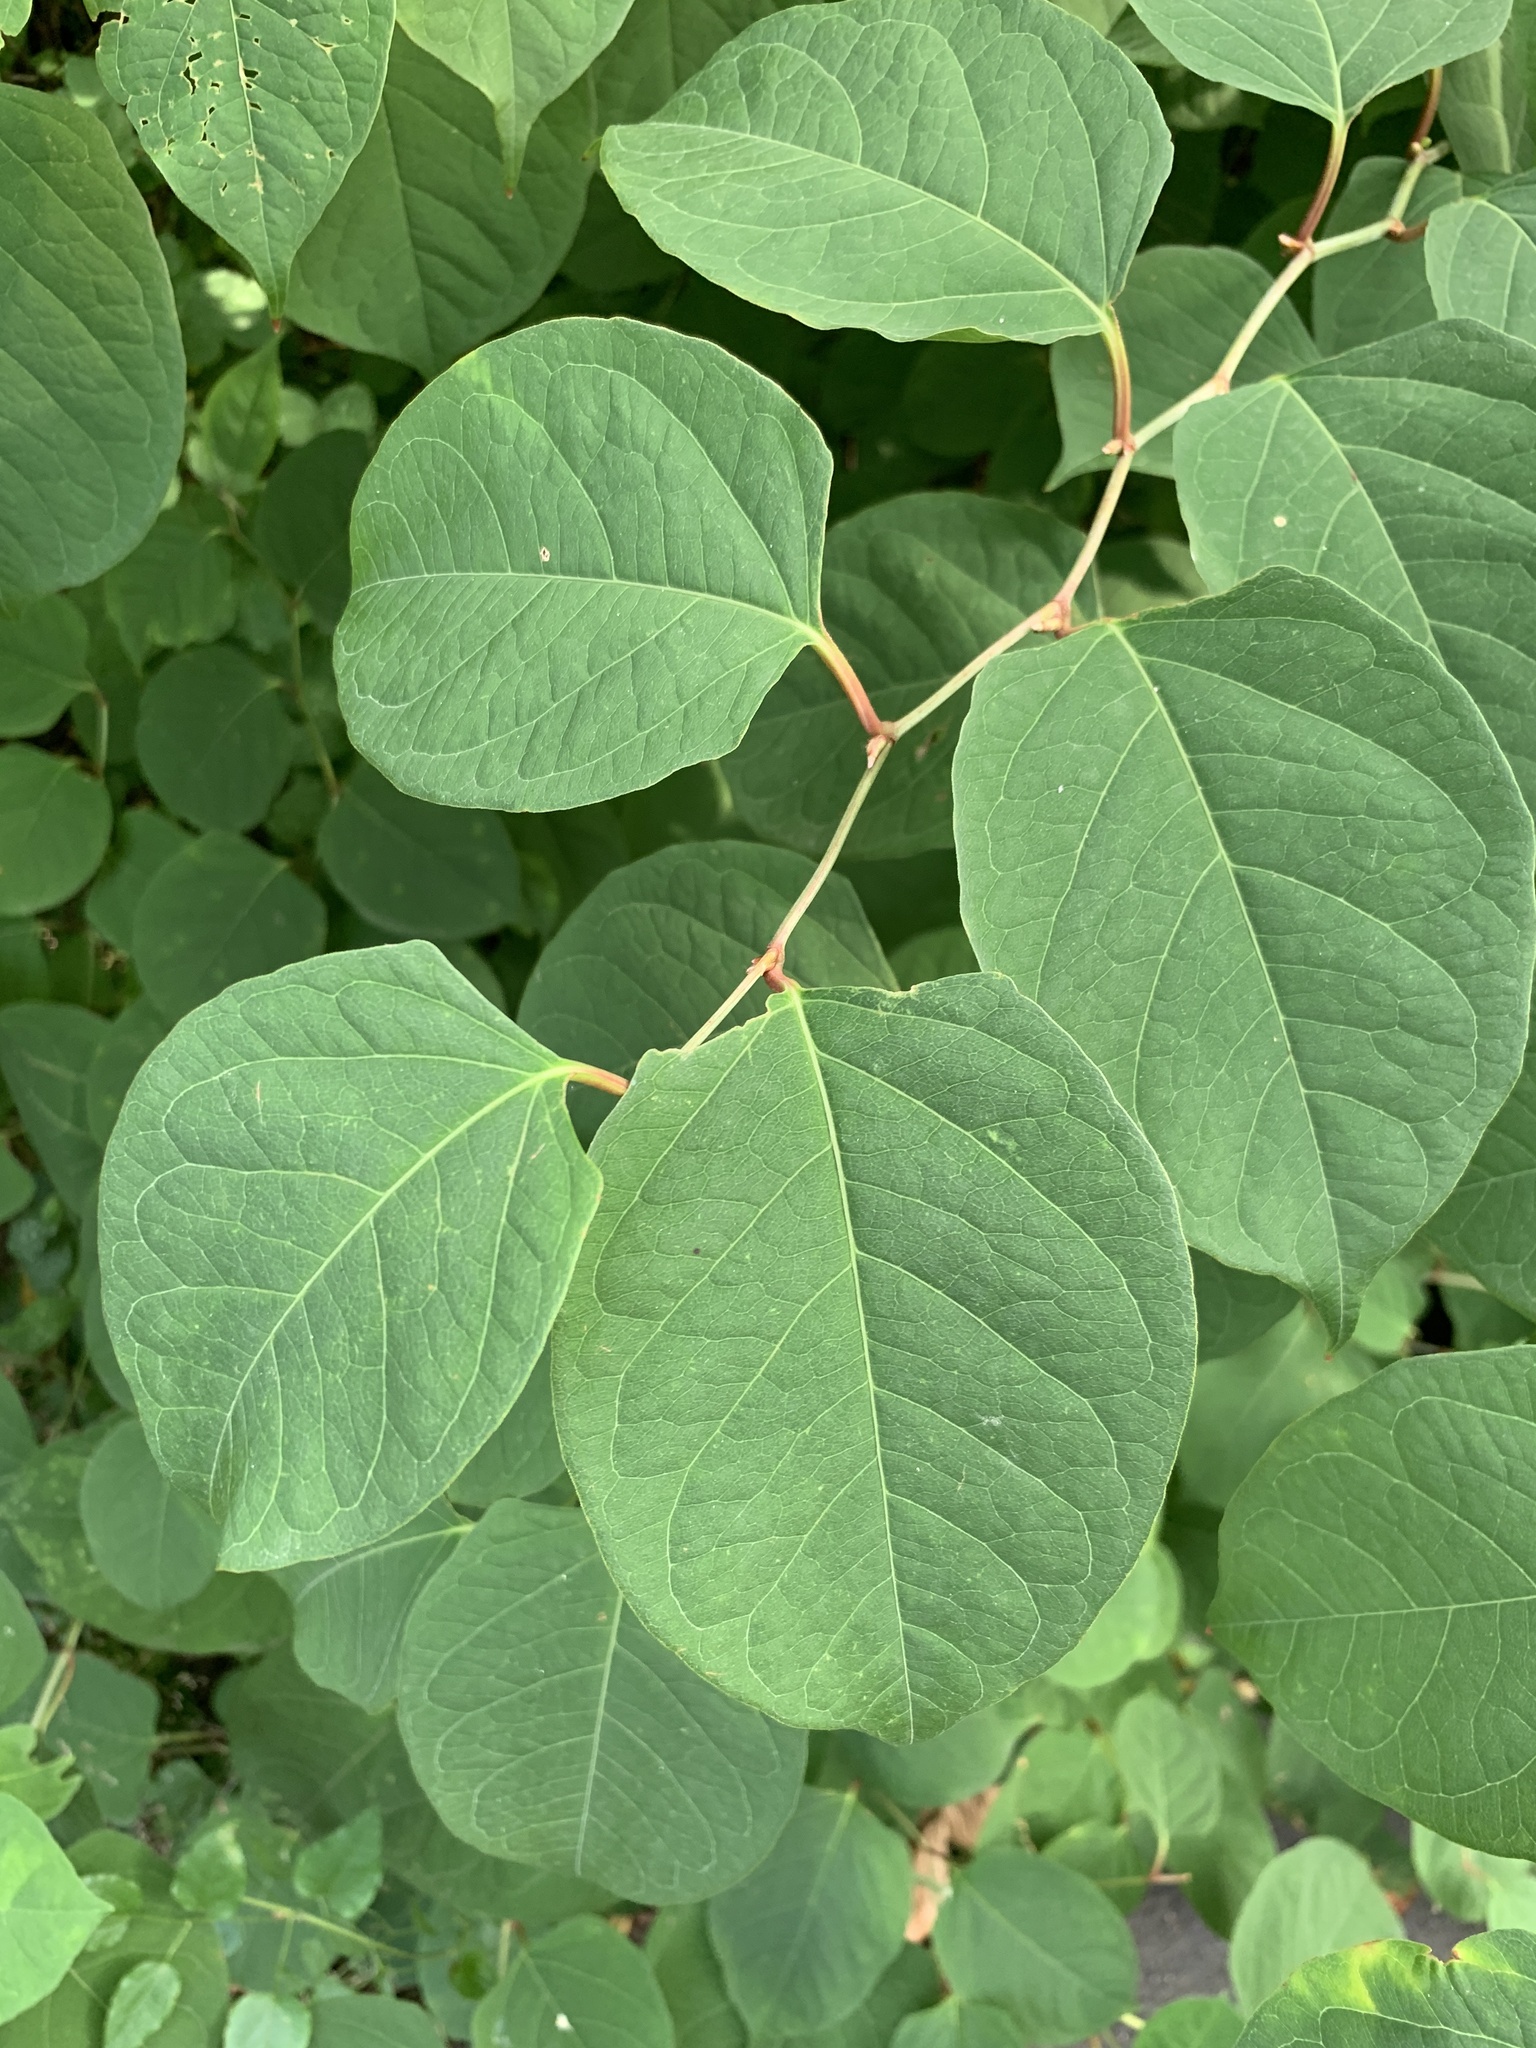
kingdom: Plantae
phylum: Tracheophyta
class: Magnoliopsida
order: Caryophyllales
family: Polygonaceae
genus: Reynoutria
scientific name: Reynoutria japonica
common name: Japanese knotweed
